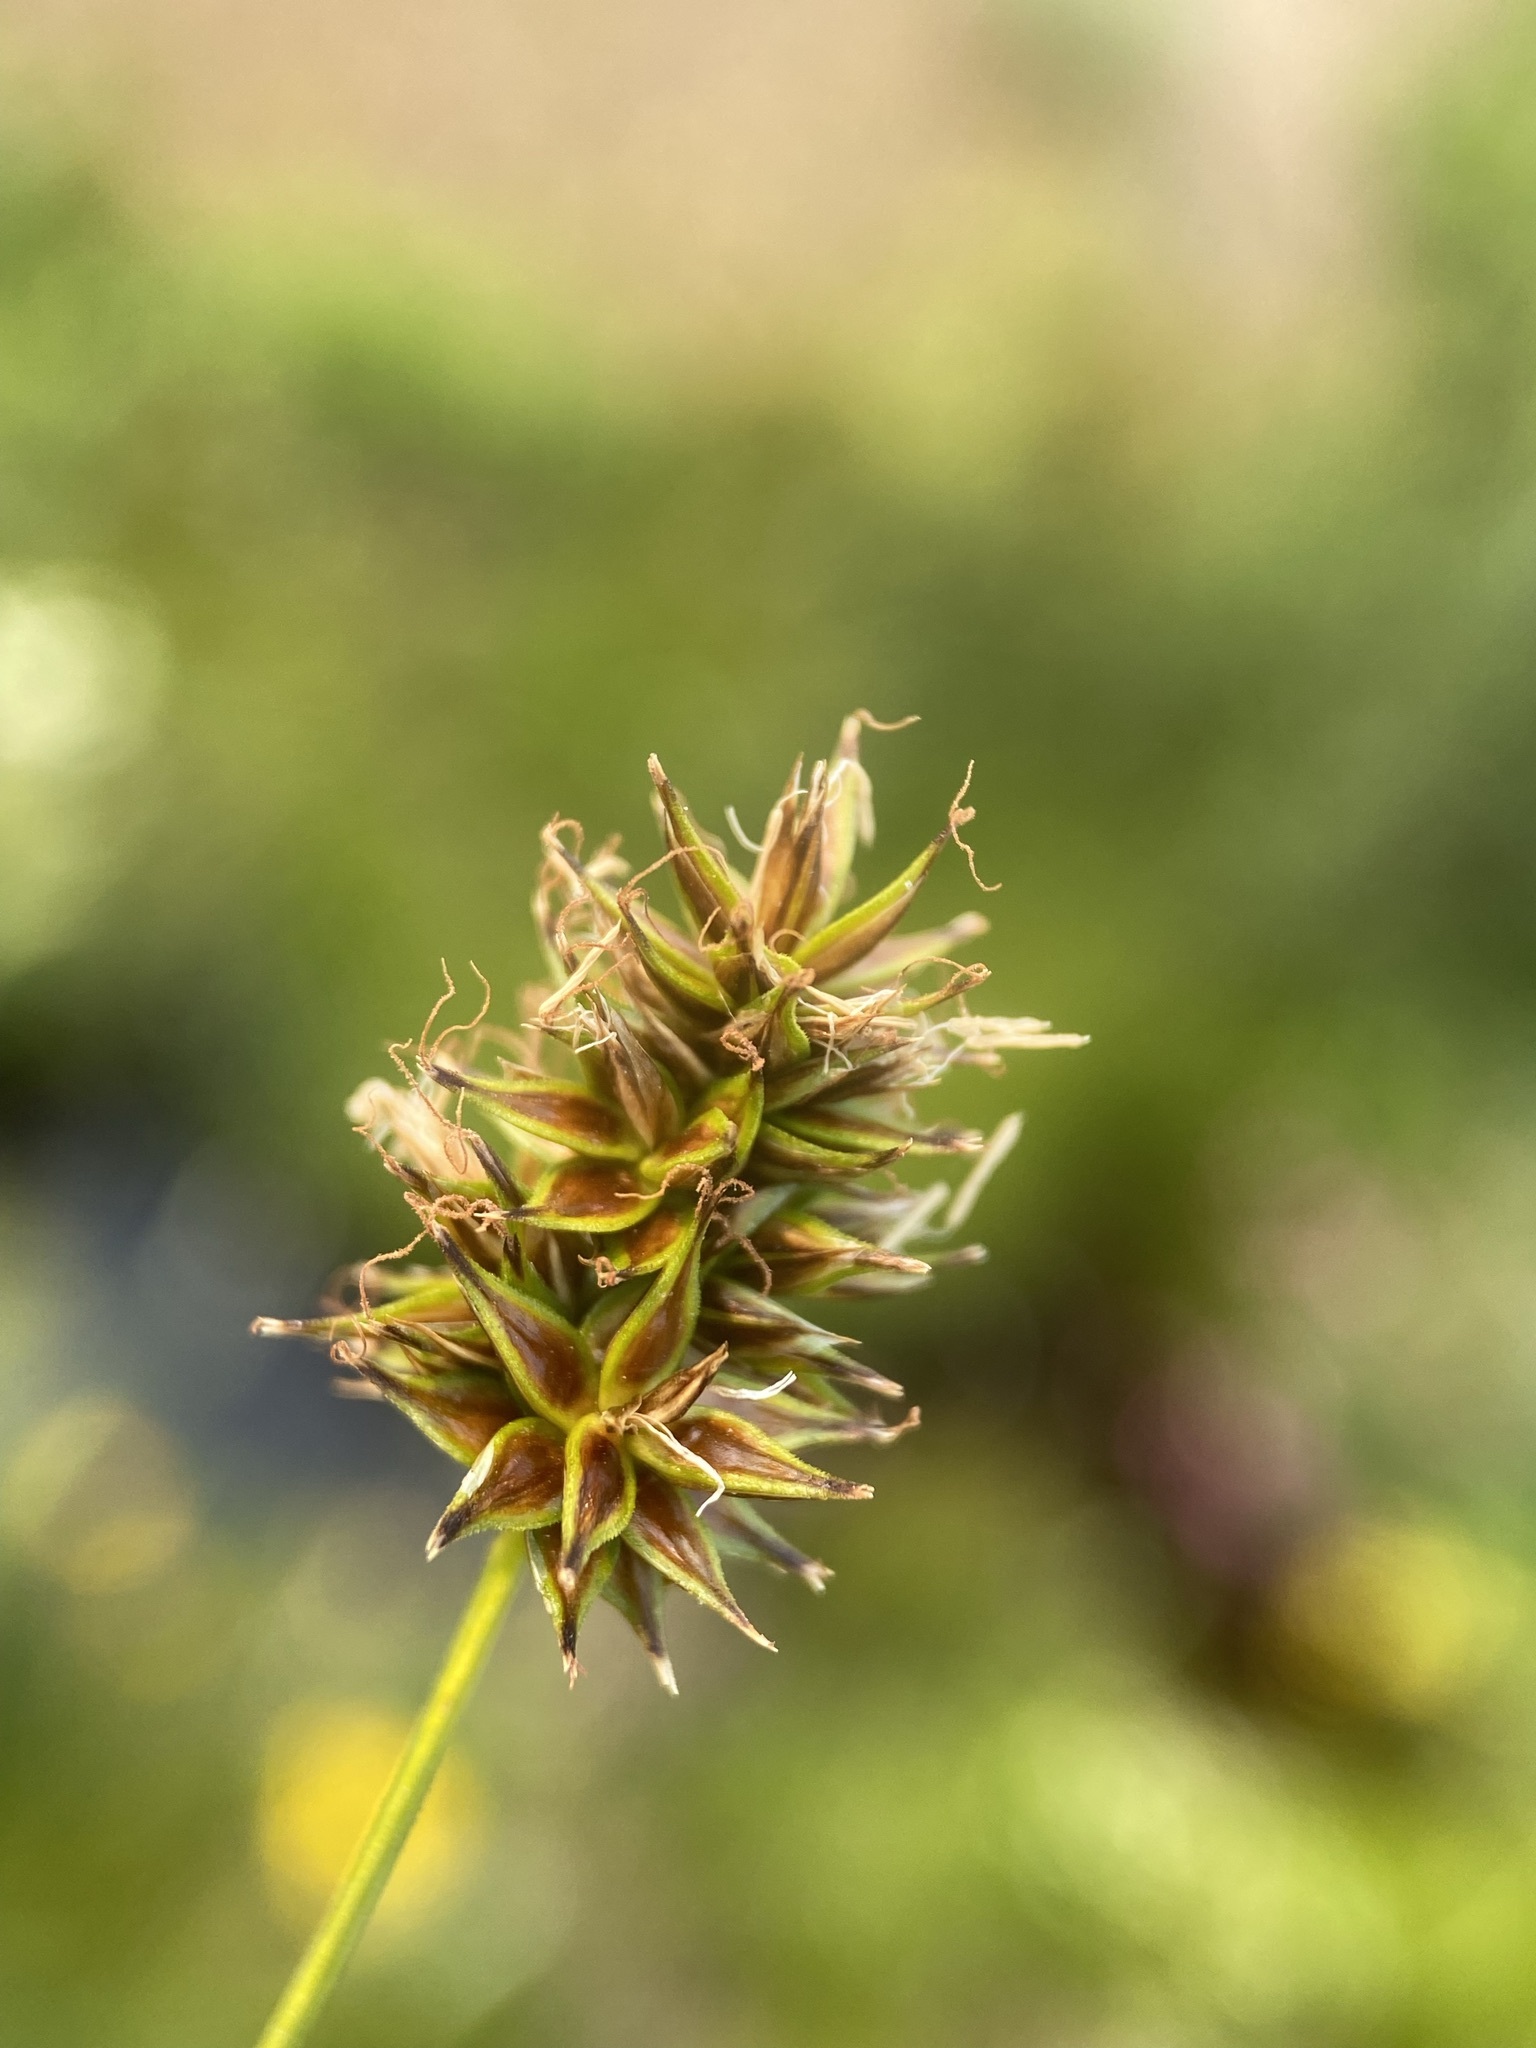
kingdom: Plantae
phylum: Tracheophyta
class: Liliopsida
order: Poales
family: Cyperaceae
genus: Carex
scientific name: Carex hoodii
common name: Hood's sedge
